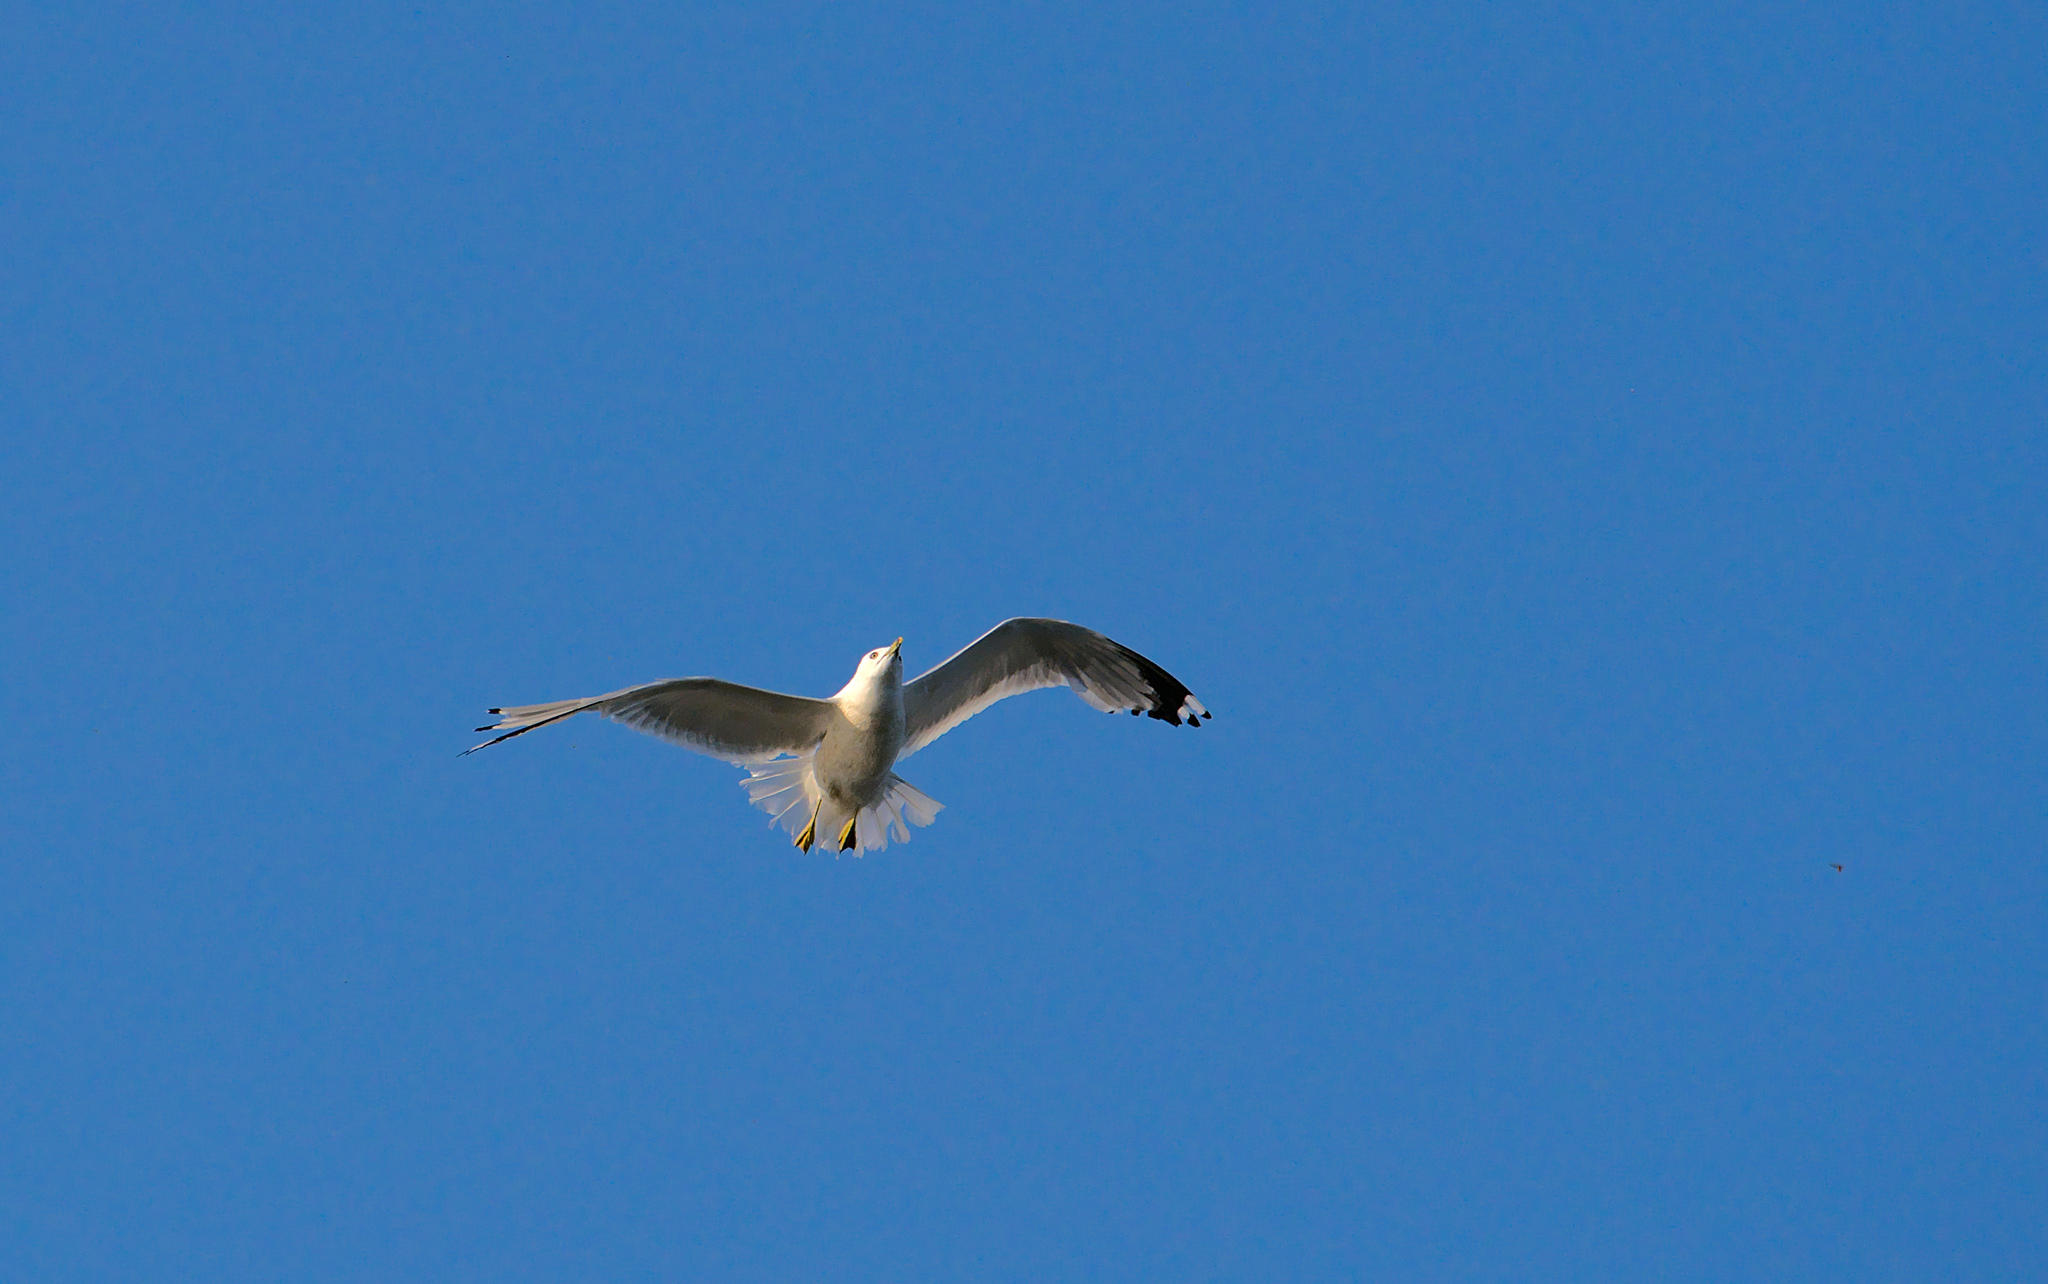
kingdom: Animalia
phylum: Chordata
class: Aves
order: Charadriiformes
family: Laridae
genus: Larus
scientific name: Larus delawarensis
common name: Ring-billed gull
